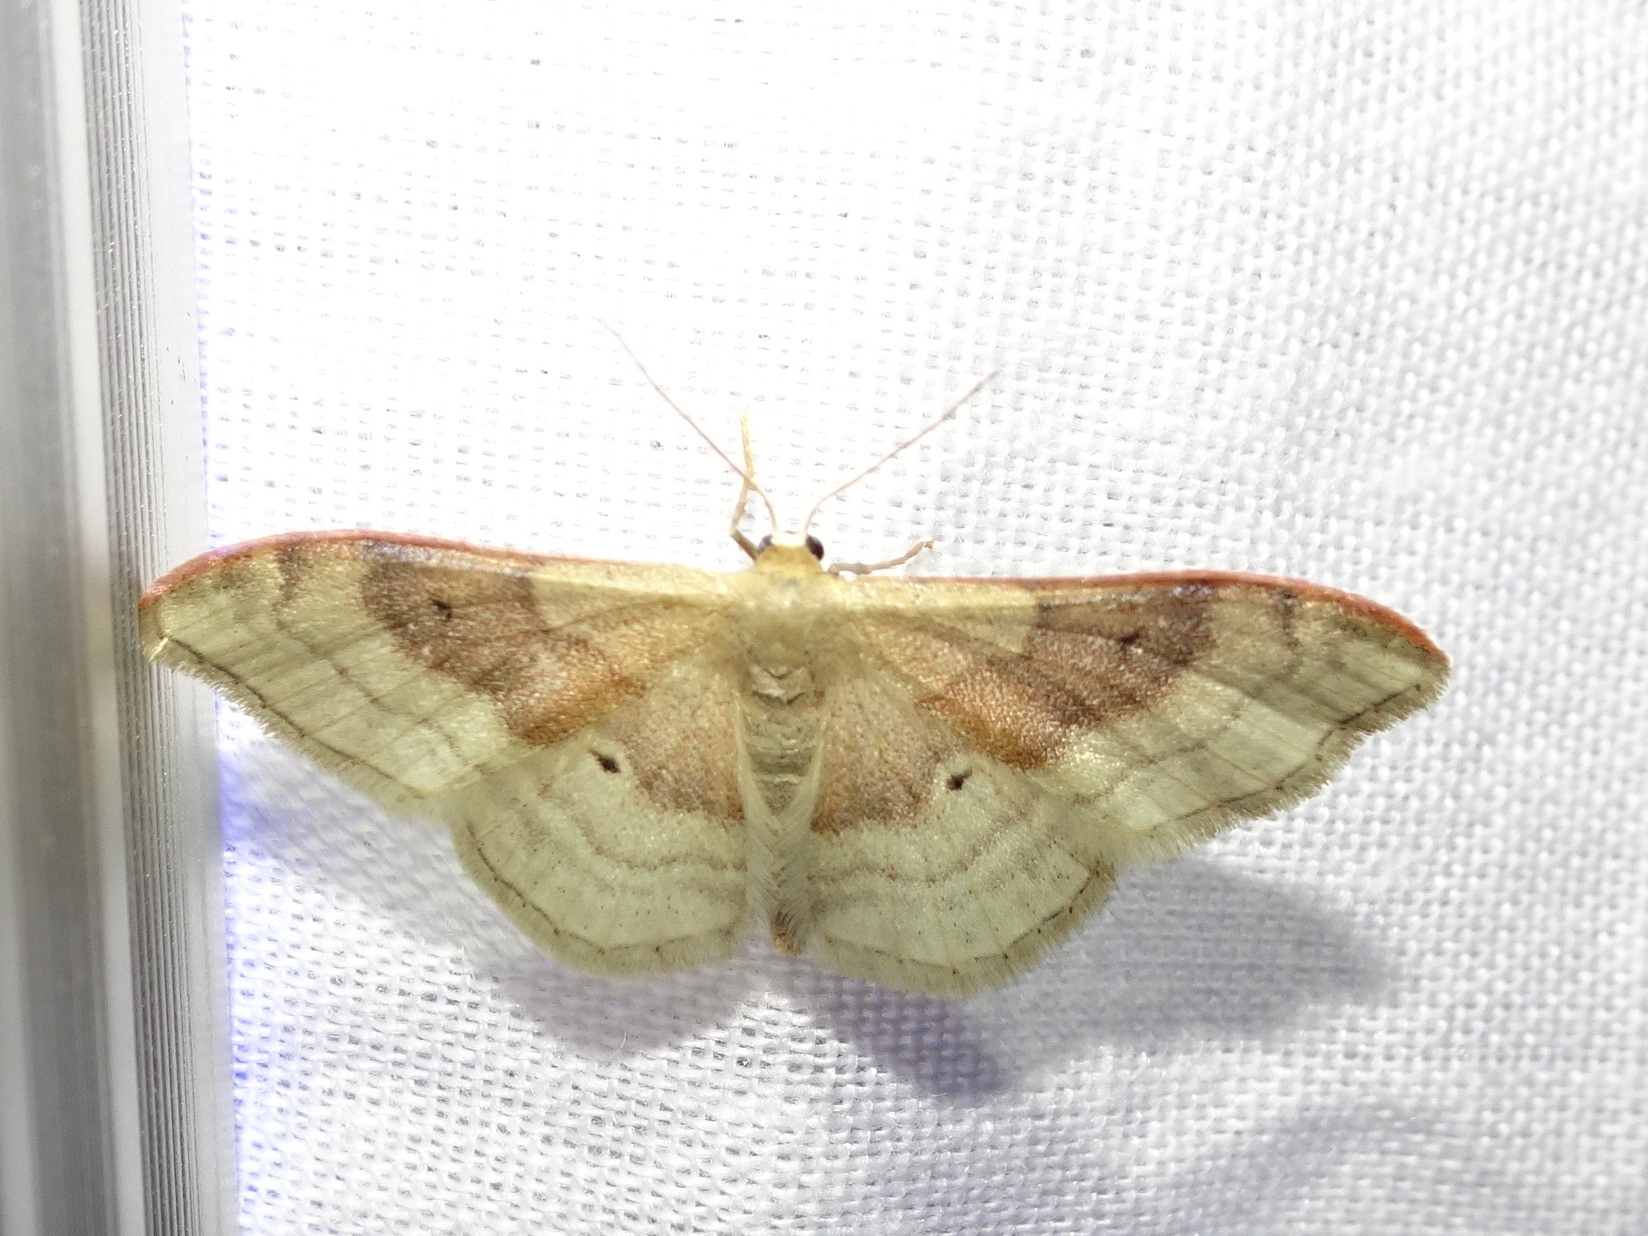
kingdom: Animalia
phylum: Arthropoda
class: Insecta
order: Lepidoptera
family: Geometridae
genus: Idaea
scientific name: Idaea degeneraria
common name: Portland ribbon wave
